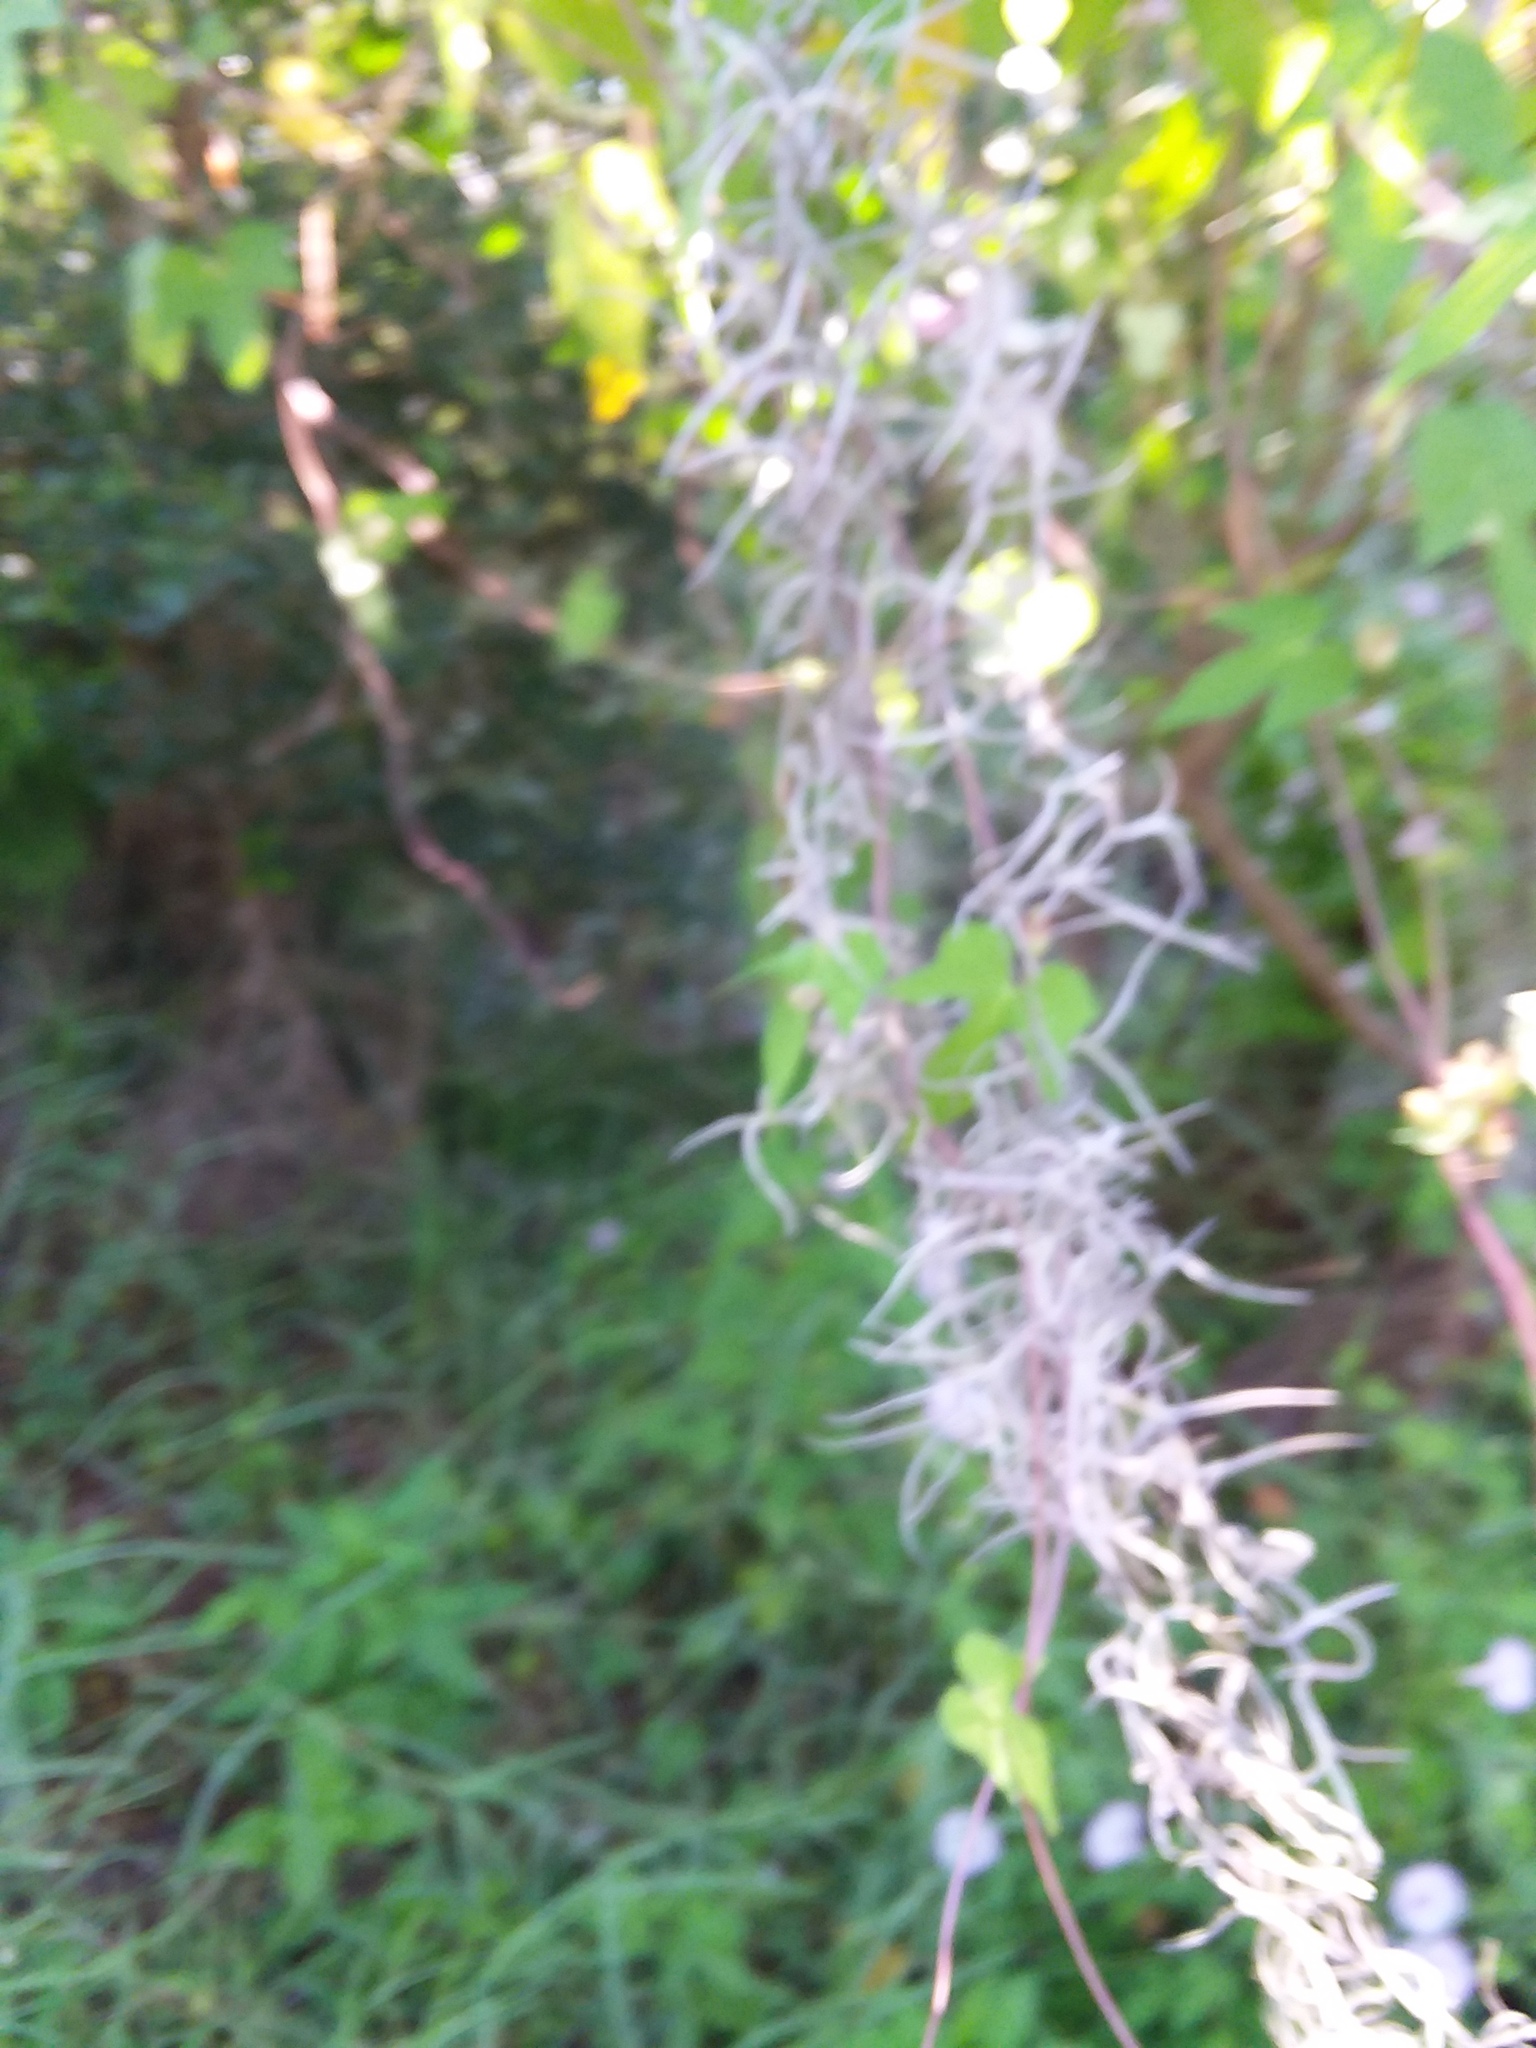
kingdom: Plantae
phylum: Tracheophyta
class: Liliopsida
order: Poales
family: Bromeliaceae
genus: Tillandsia
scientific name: Tillandsia usneoides
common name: Spanish moss
